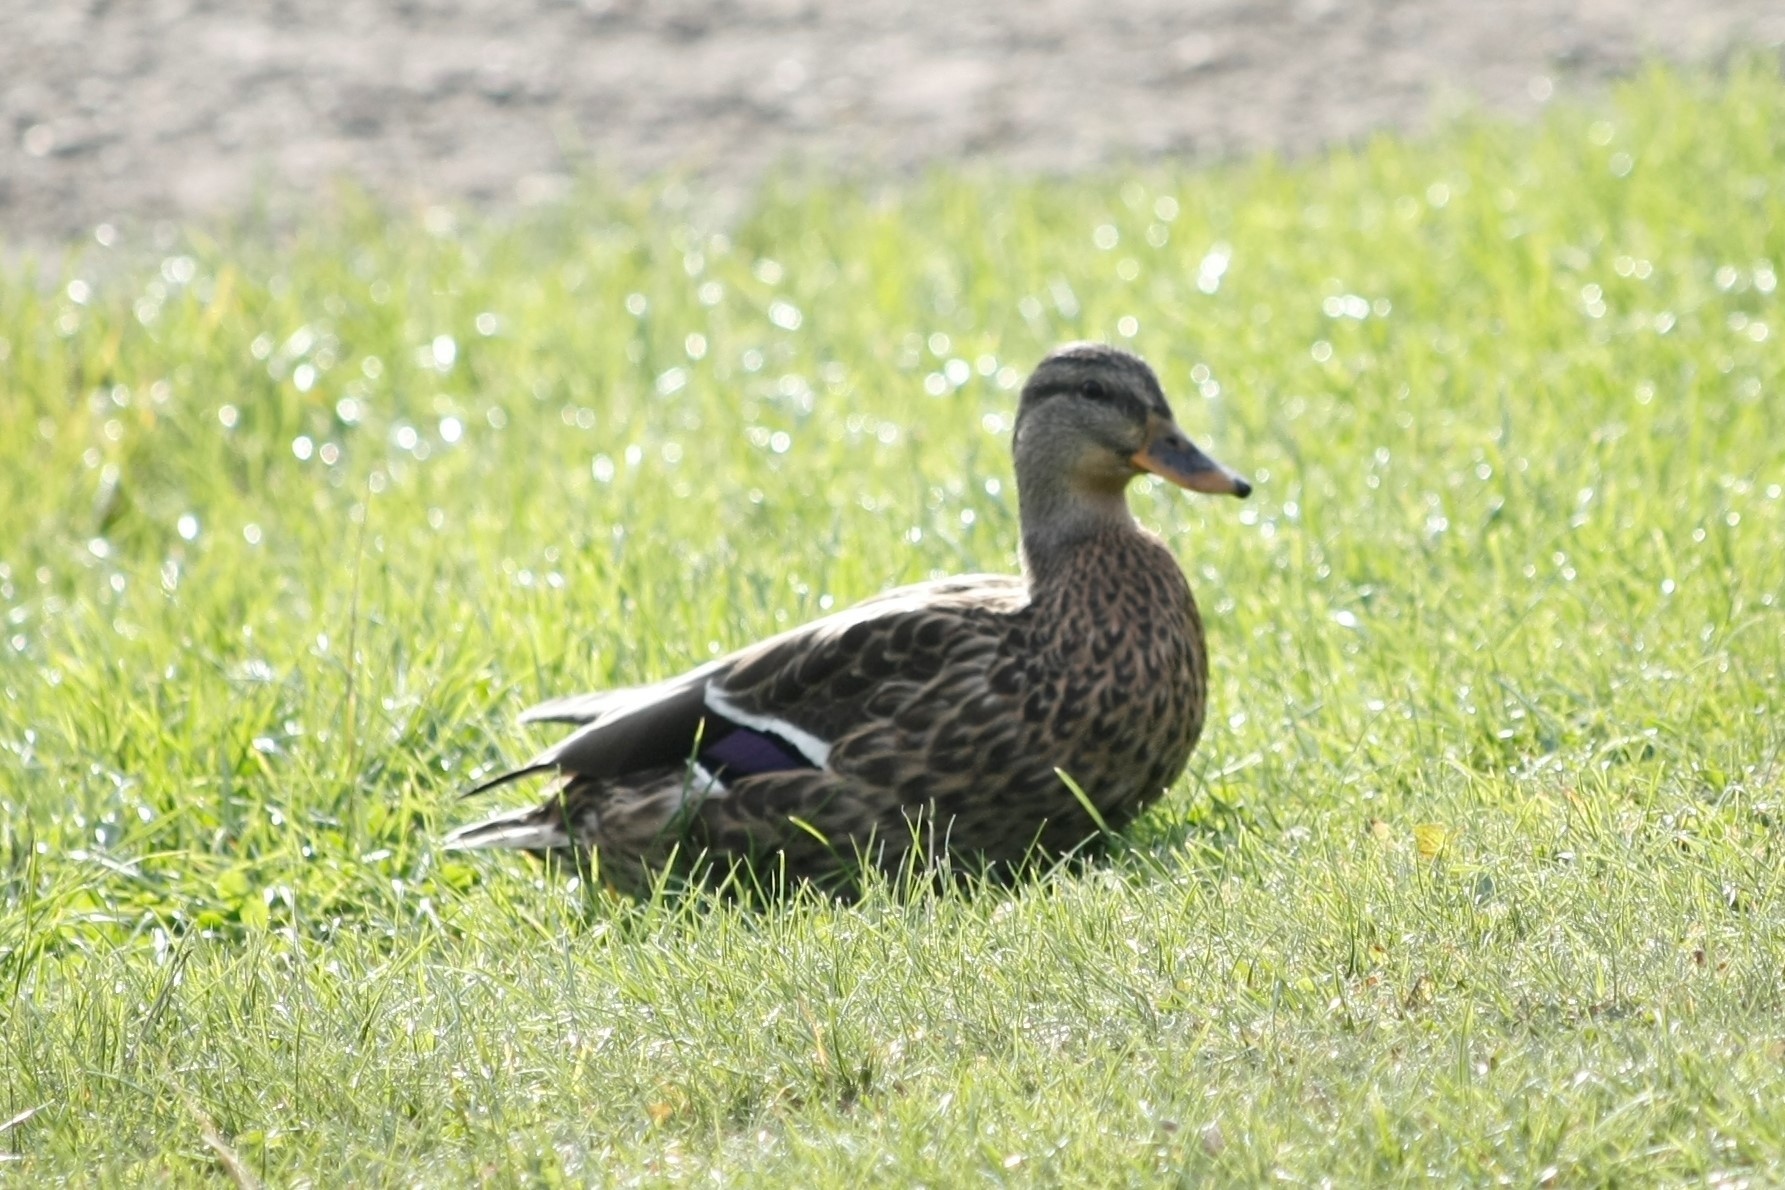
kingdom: Animalia
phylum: Chordata
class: Aves
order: Anseriformes
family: Anatidae
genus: Anas
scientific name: Anas platyrhynchos
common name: Mallard
